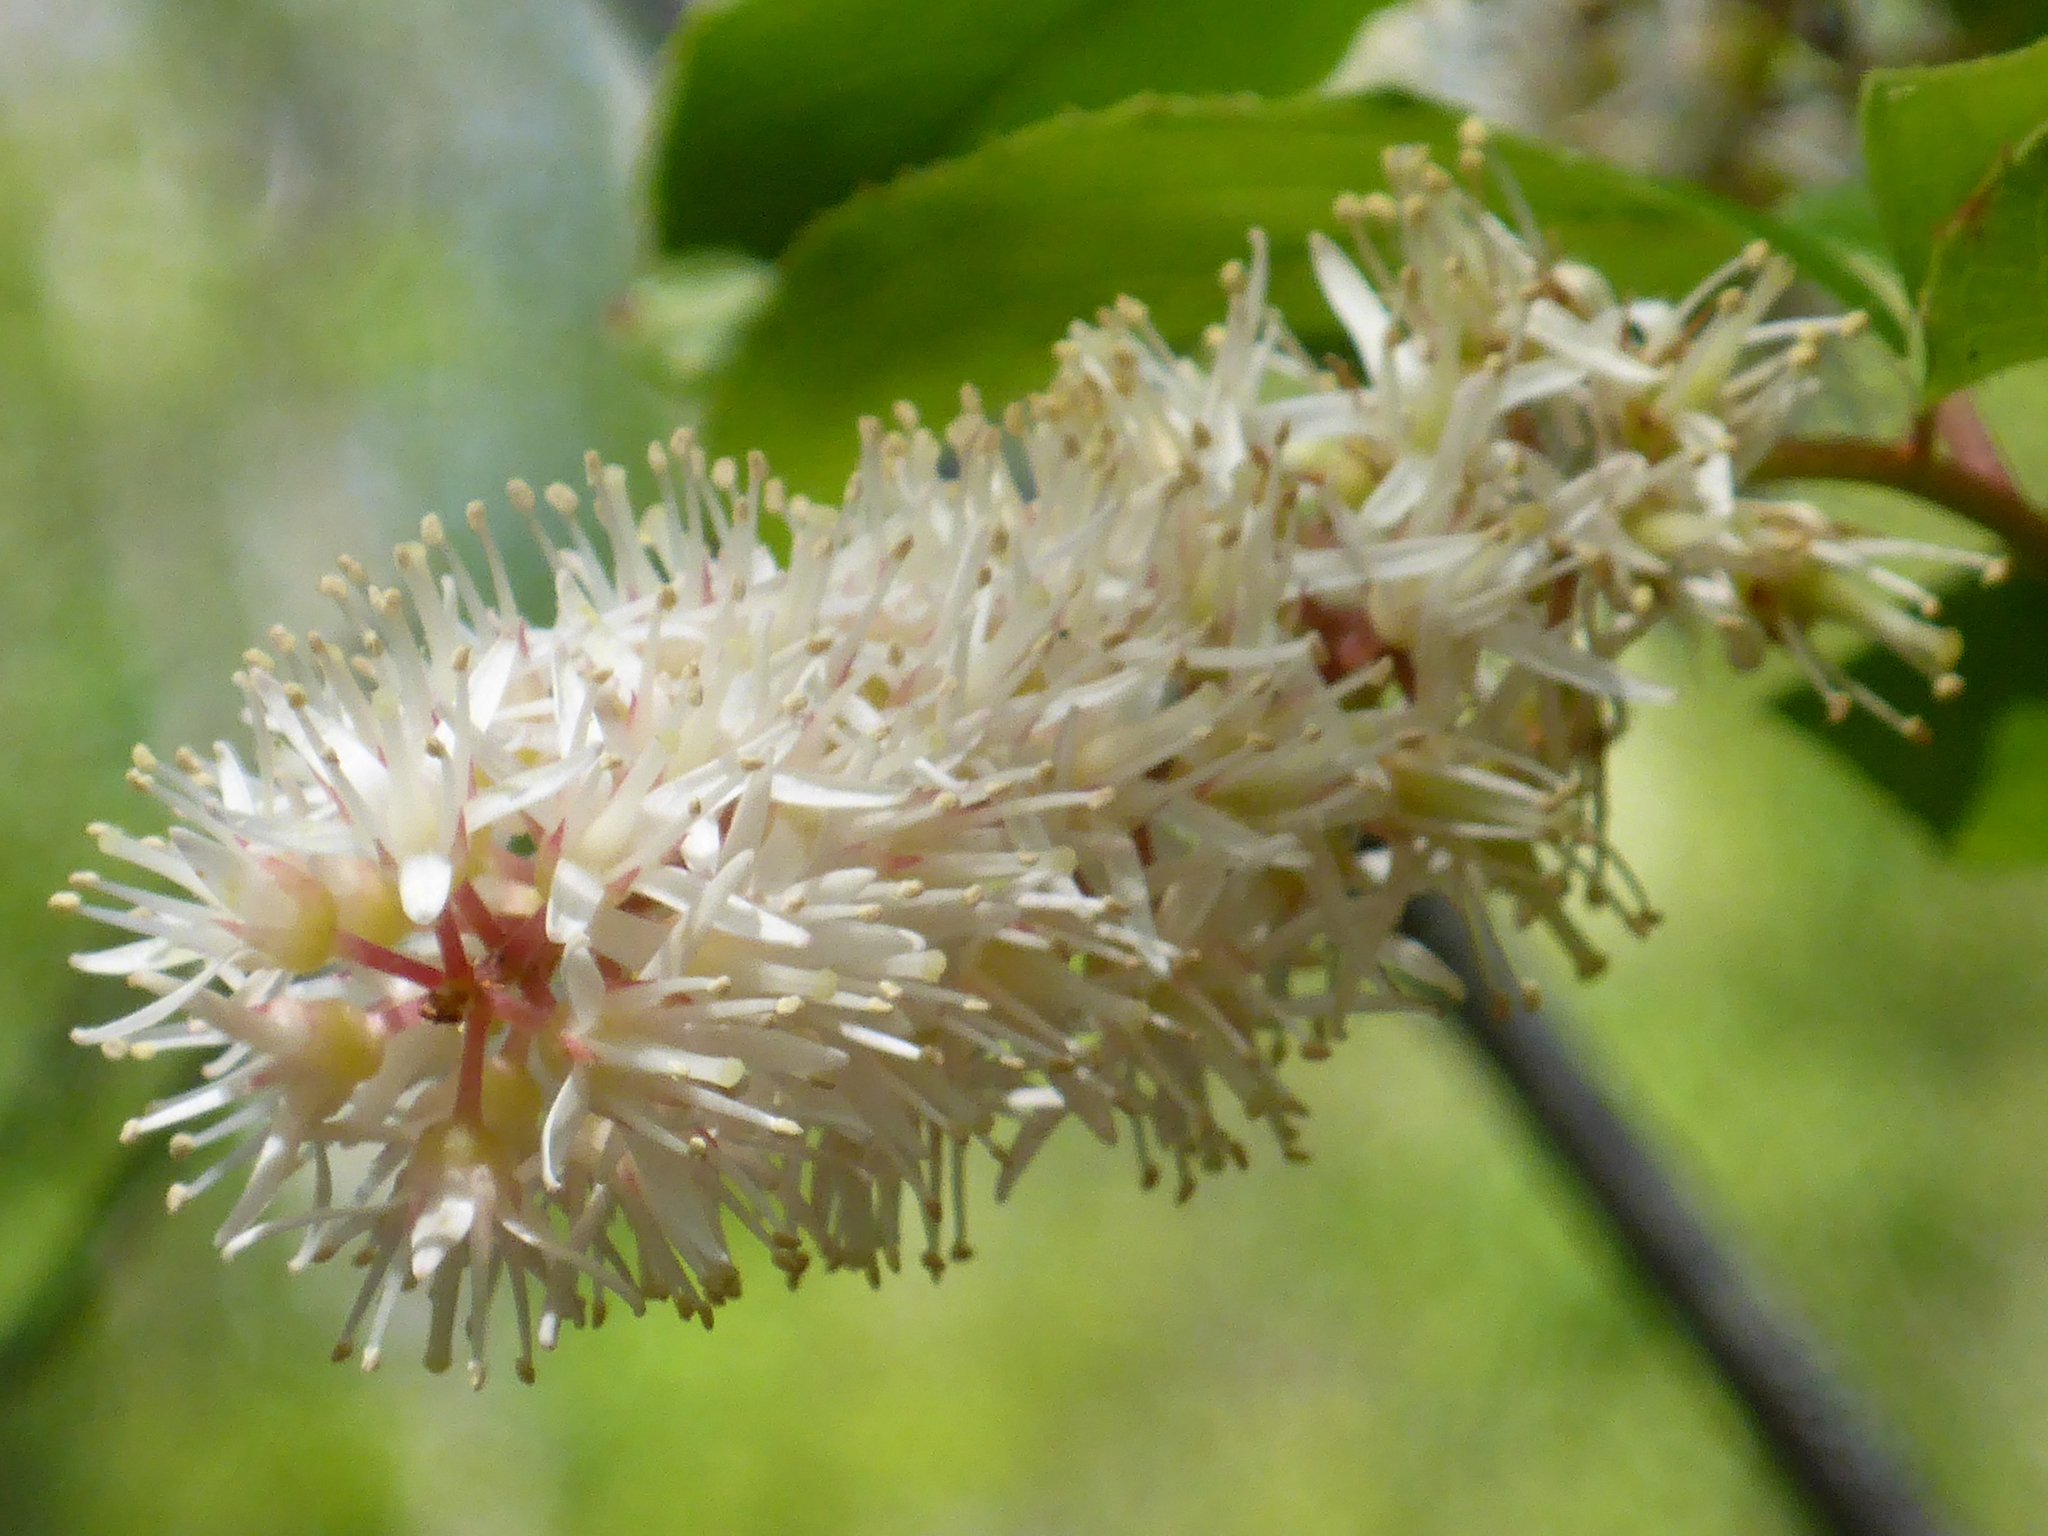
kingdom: Plantae
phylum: Tracheophyta
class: Magnoliopsida
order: Saxifragales
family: Iteaceae
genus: Itea
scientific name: Itea virginica
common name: Sweetspire
